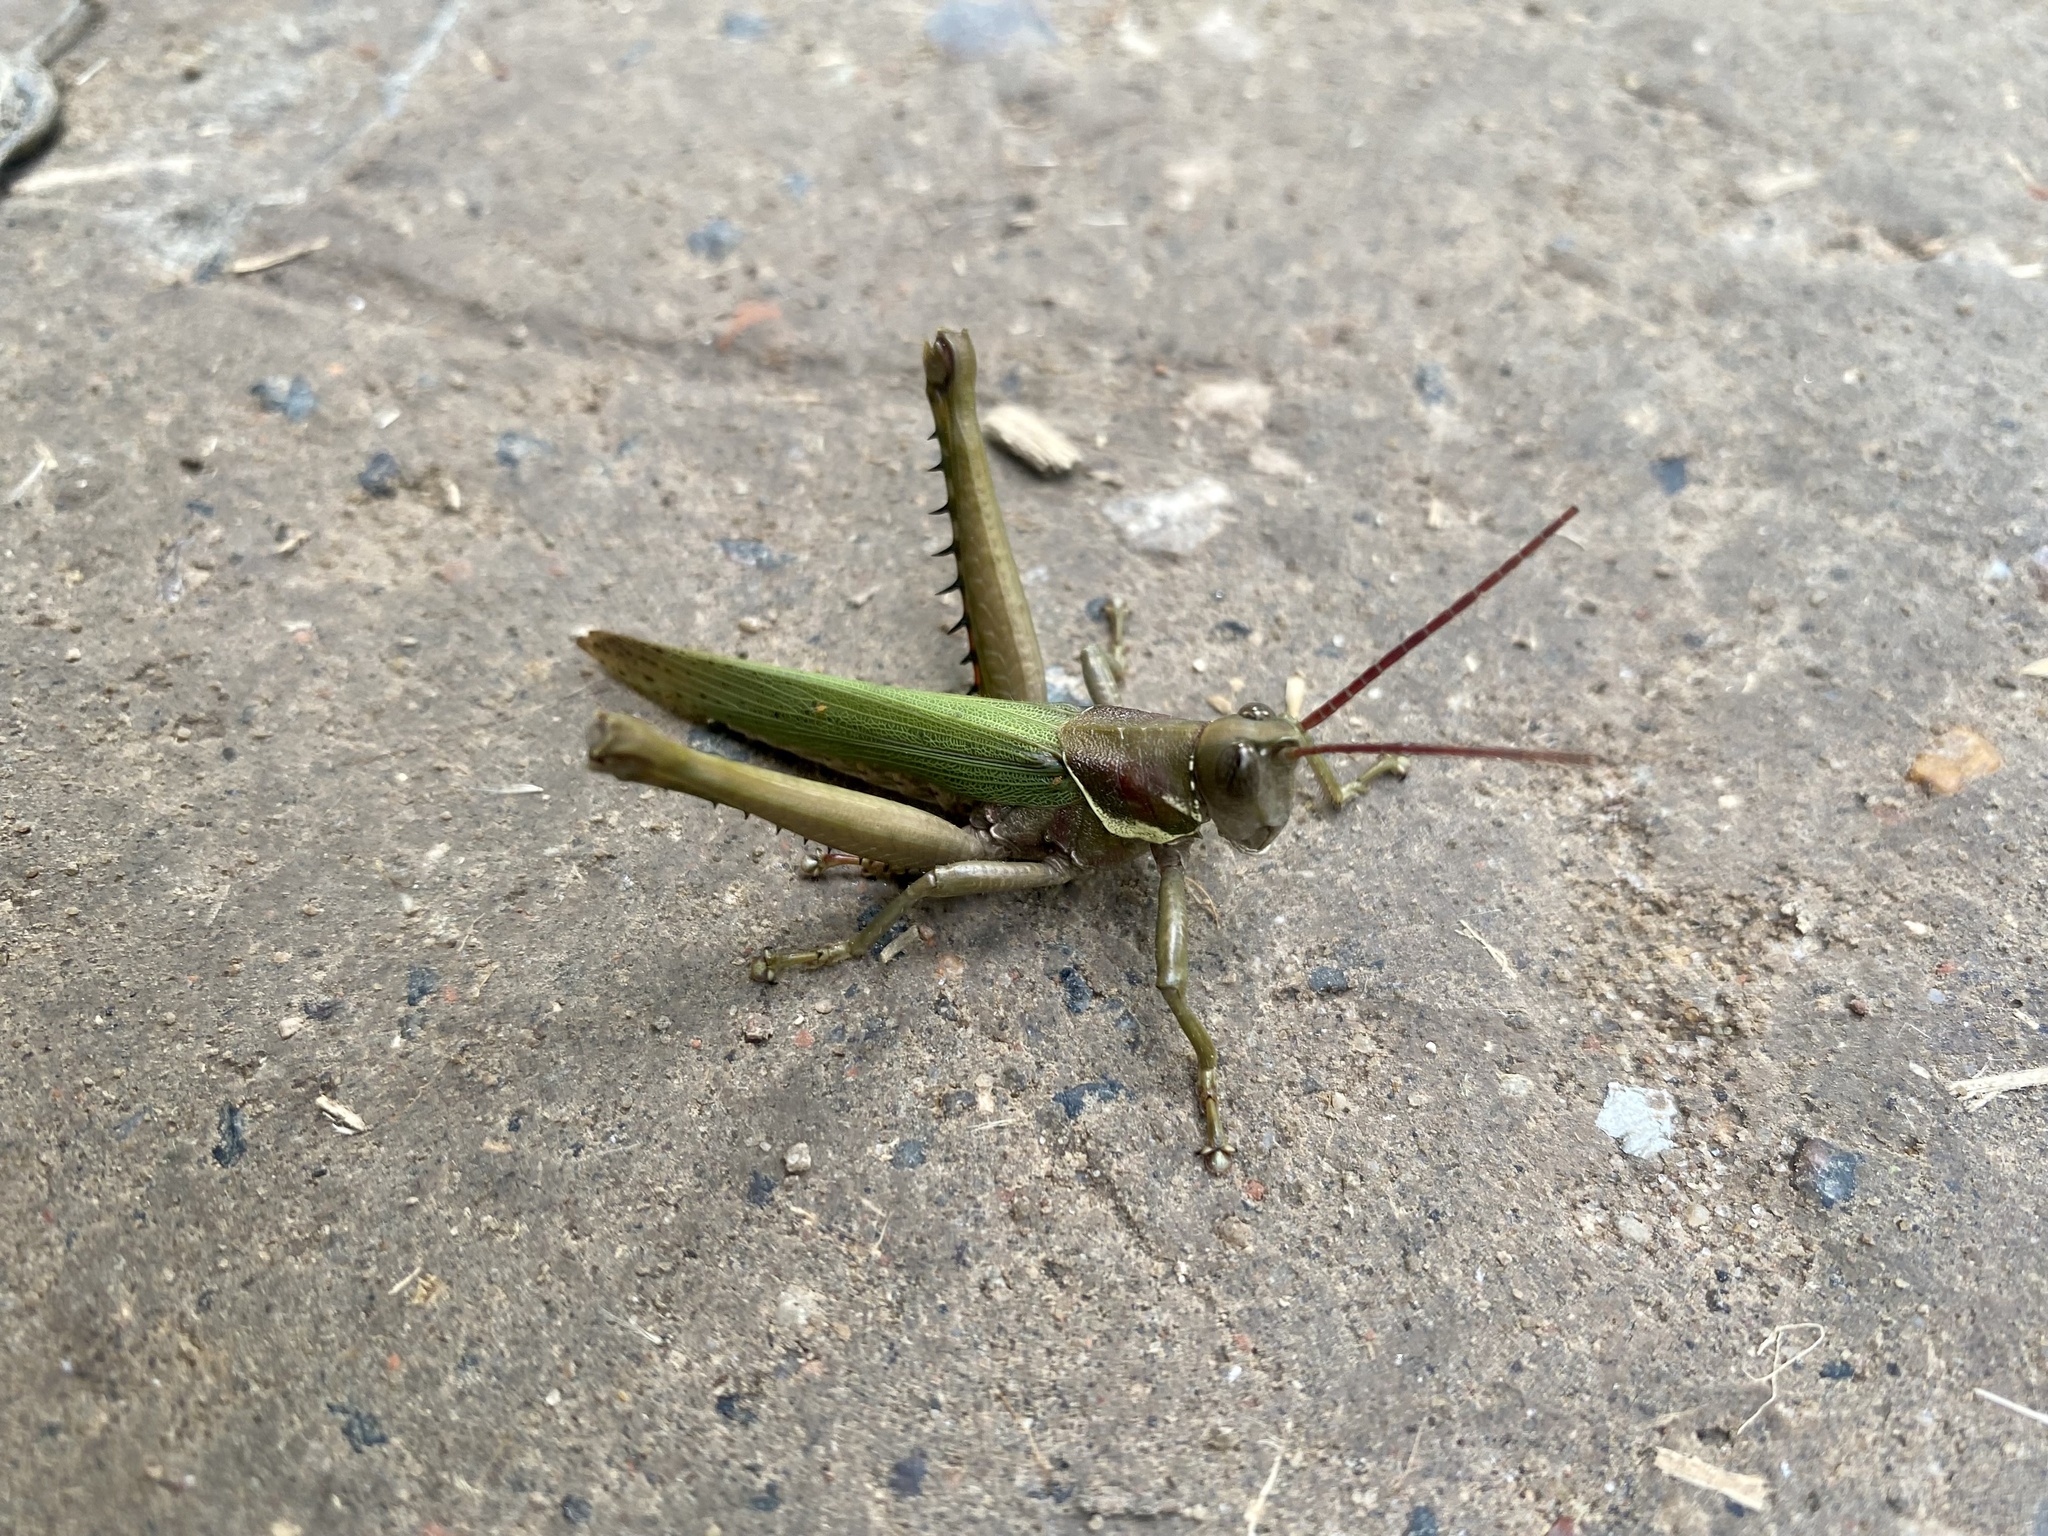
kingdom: Animalia
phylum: Arthropoda
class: Insecta
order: Orthoptera
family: Romaleidae
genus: Coryacris
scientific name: Coryacris angustipennis
